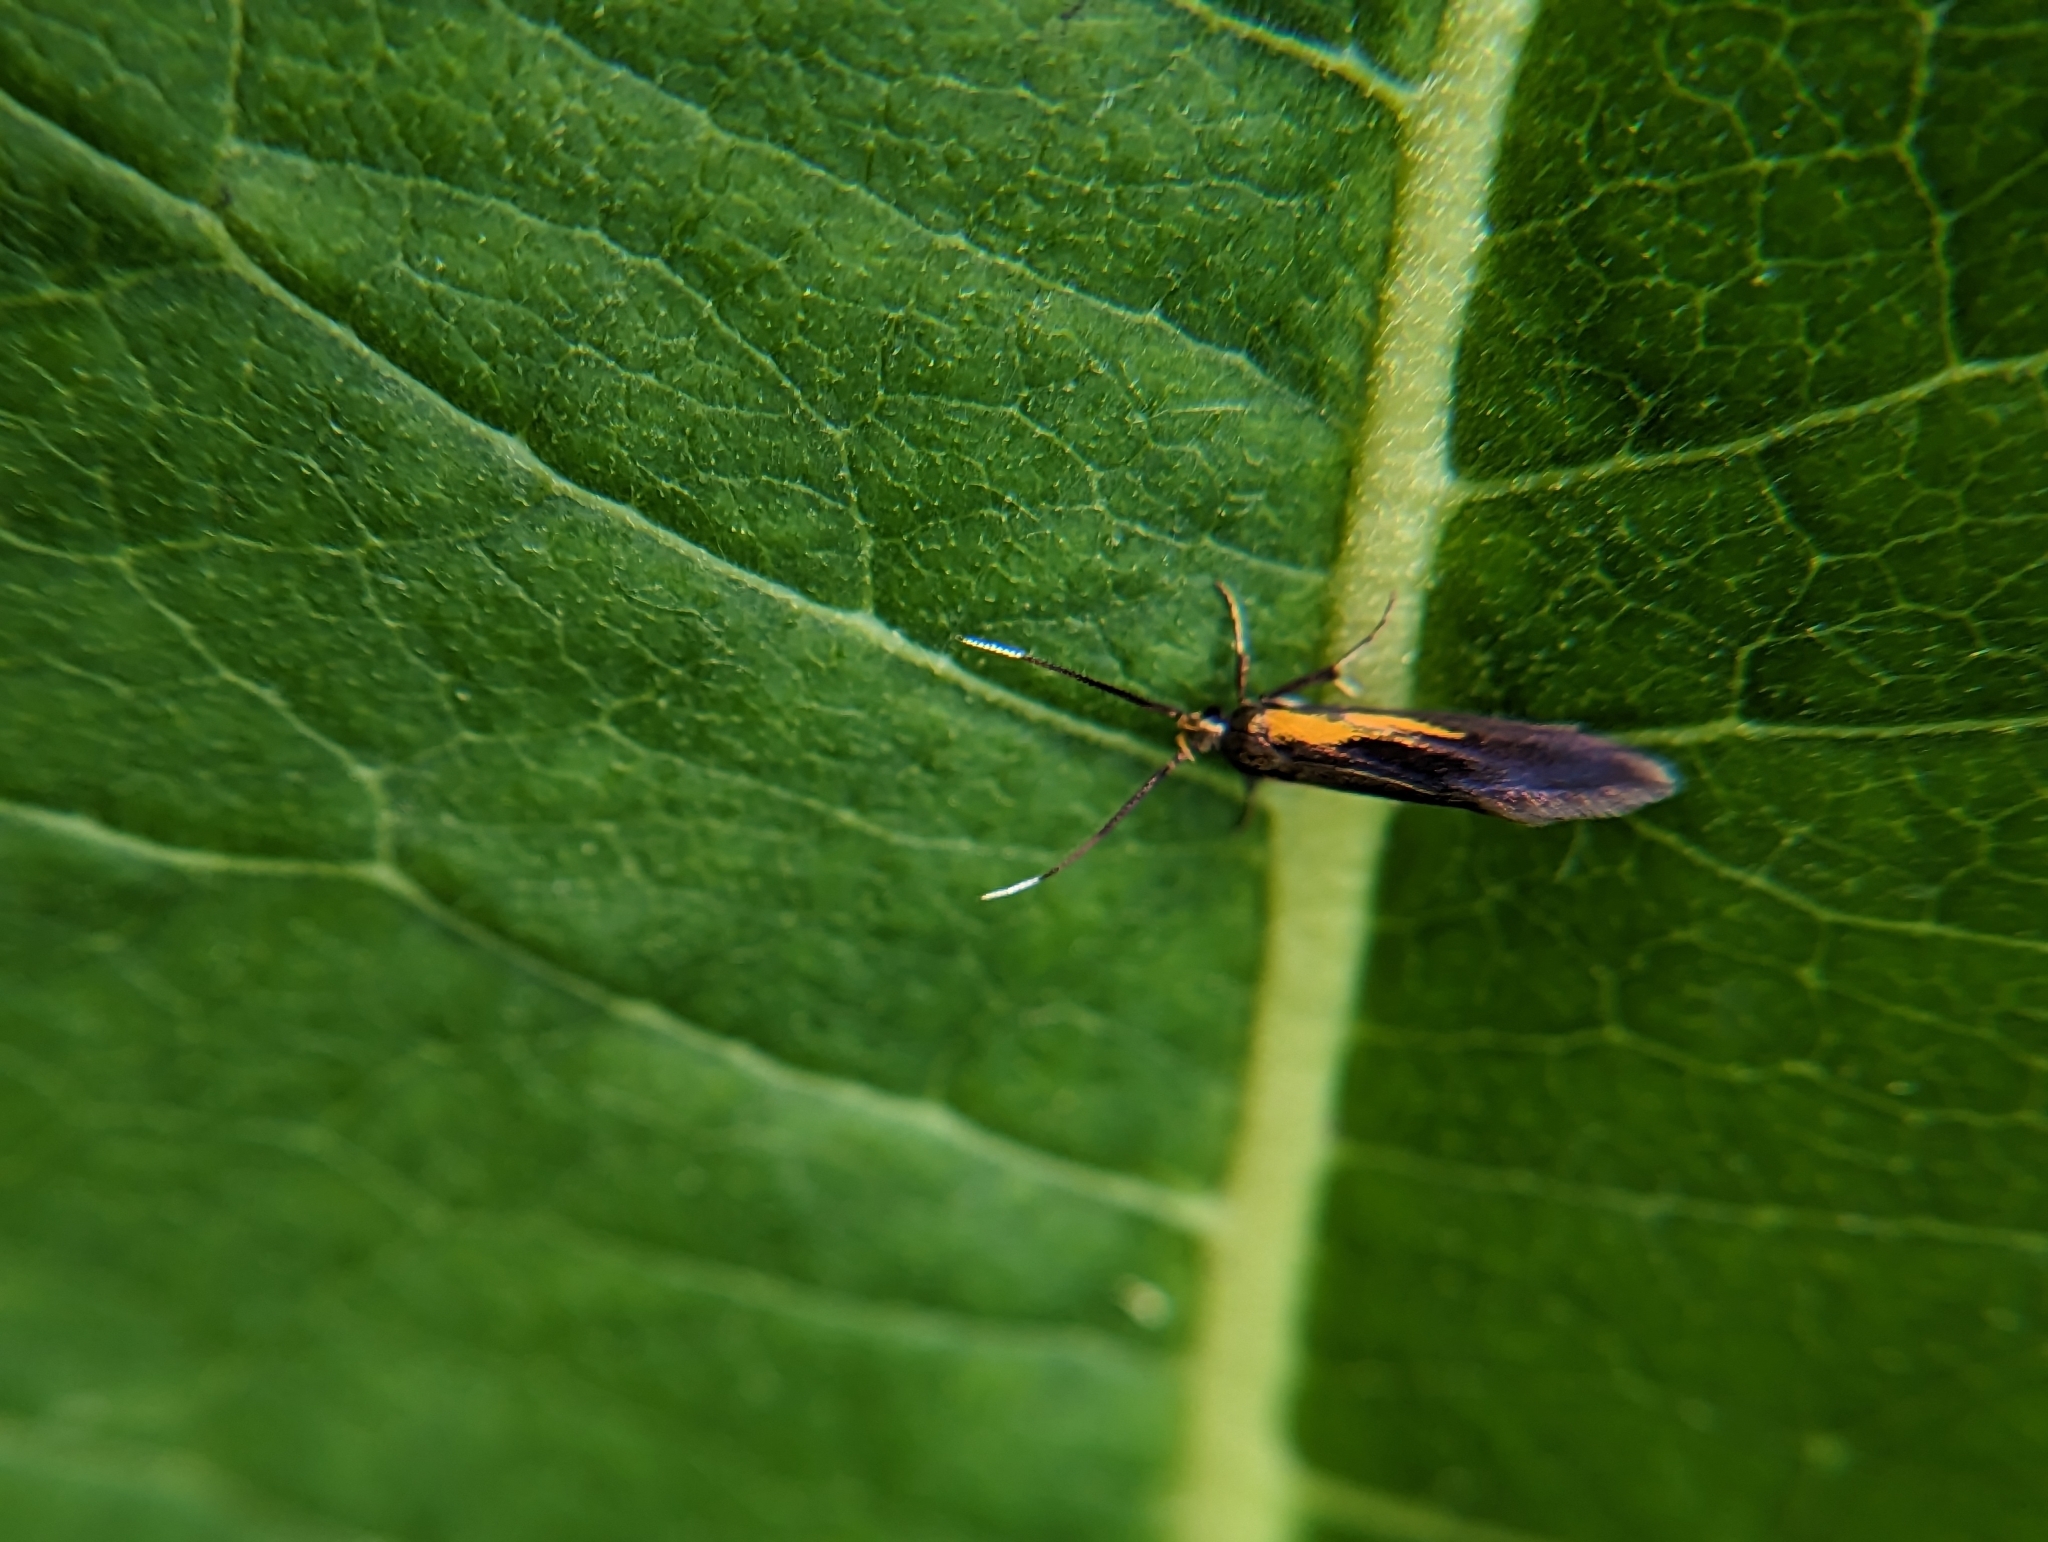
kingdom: Animalia
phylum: Arthropoda
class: Insecta
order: Lepidoptera
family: Oecophoridae
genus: Mathildana
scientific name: Mathildana newmanella
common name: Newman's mathildana moth
